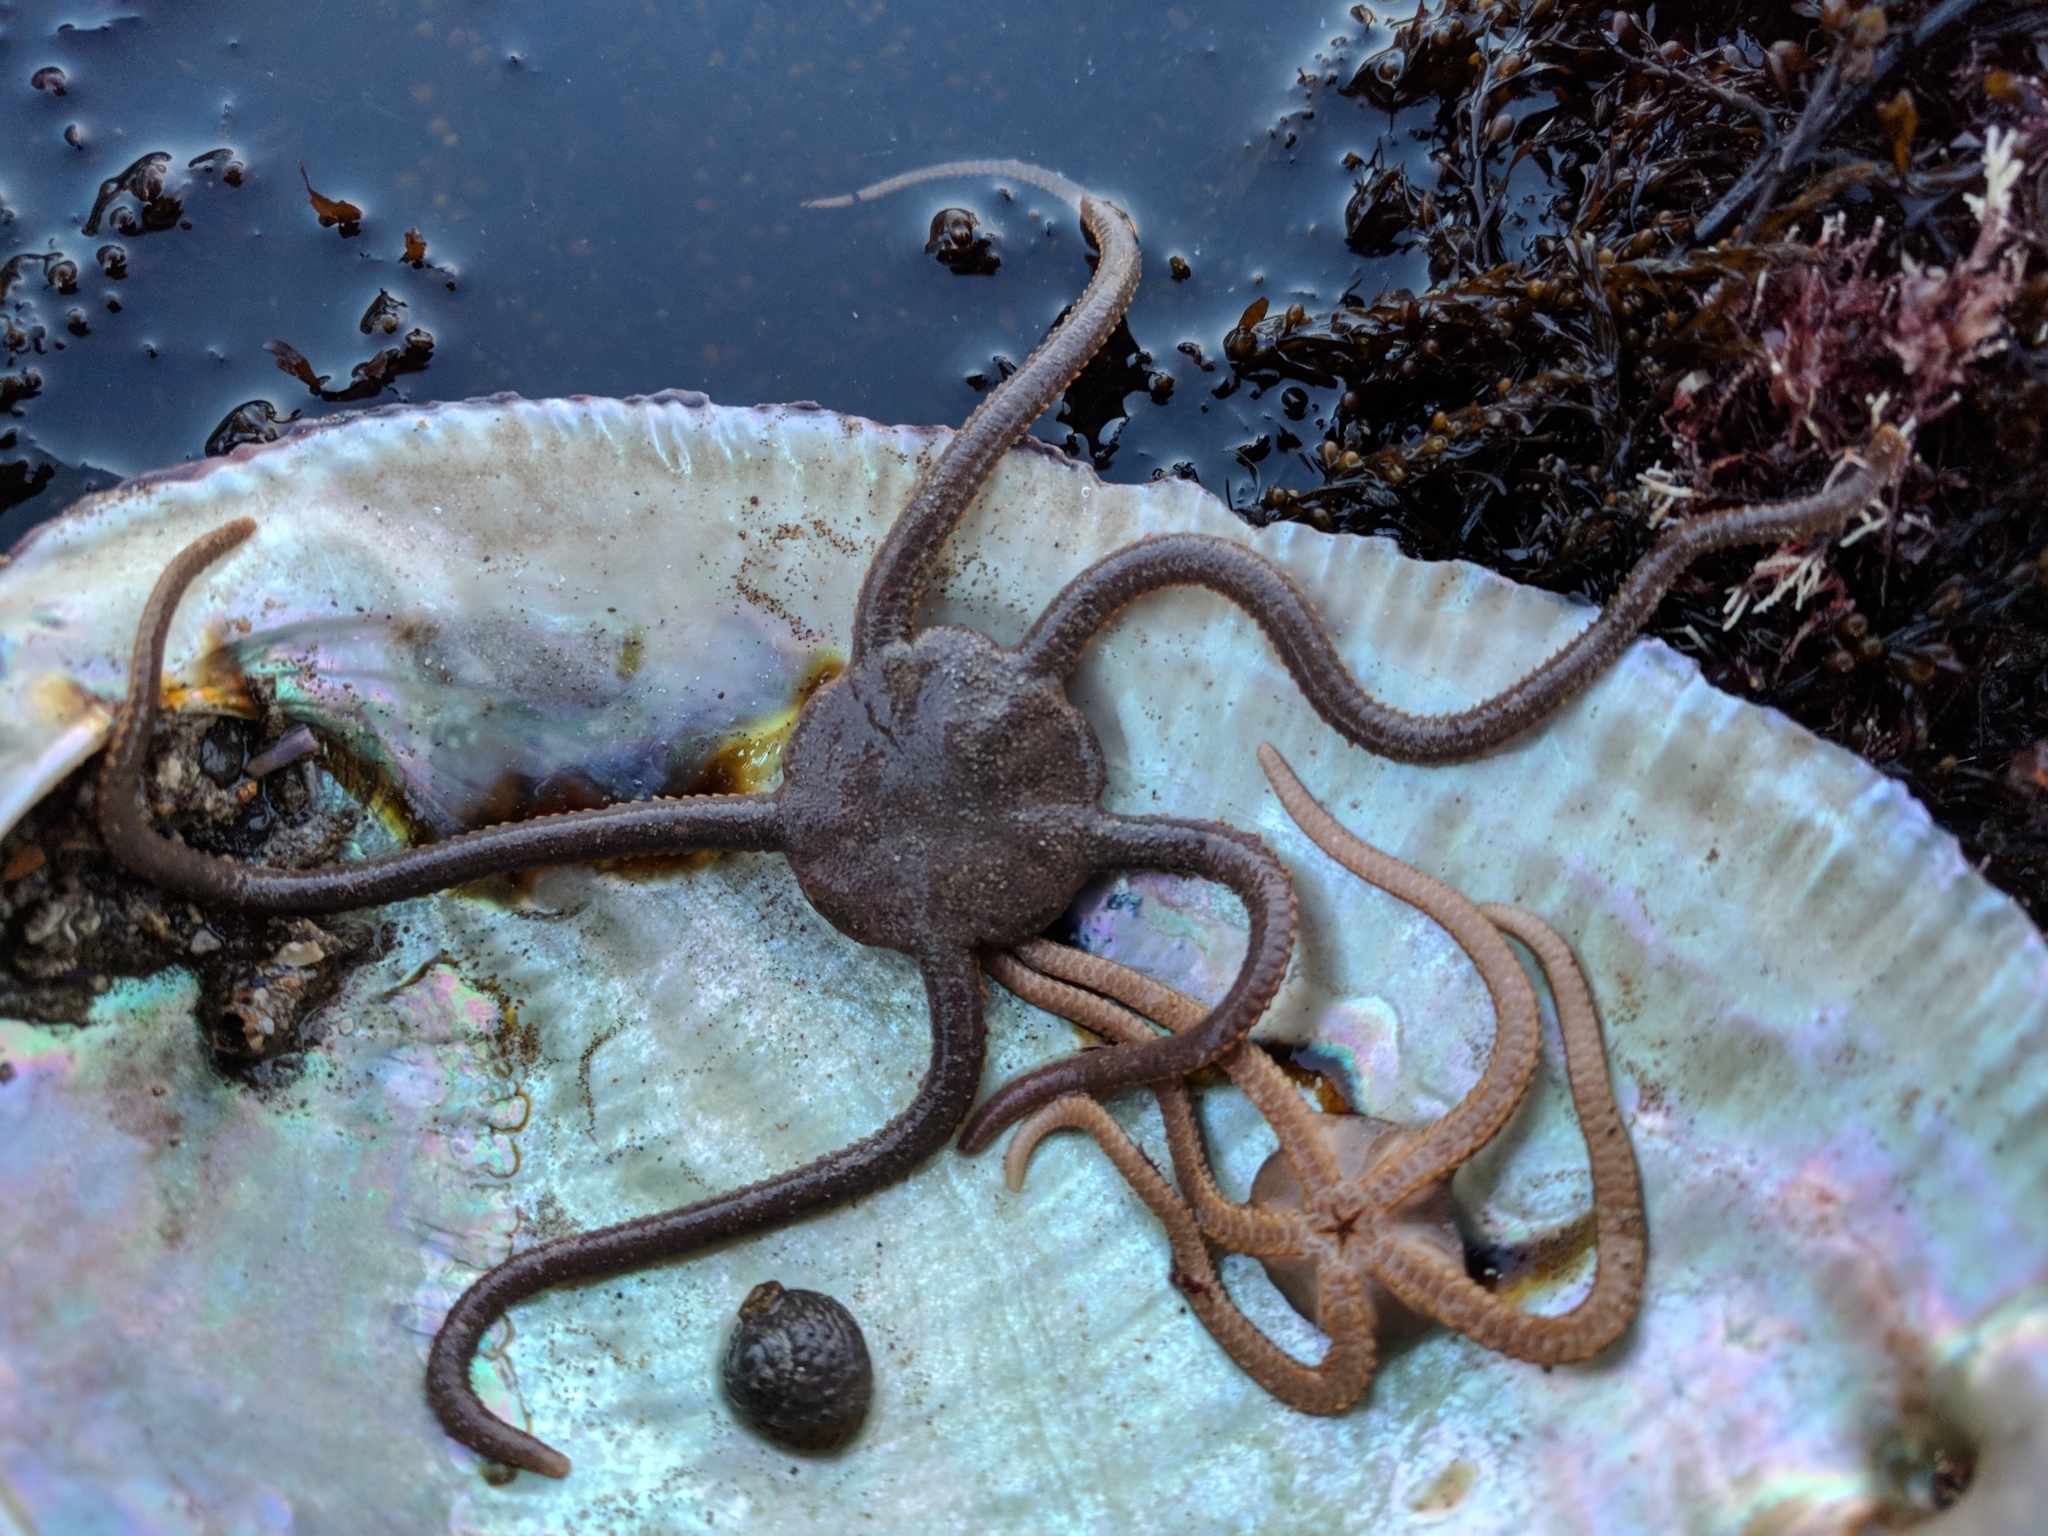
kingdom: Animalia
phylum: Echinodermata
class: Ophiuroidea
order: Amphilepidida
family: Hemieuryalidae
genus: Ophioplocus
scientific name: Ophioplocus esmarki
